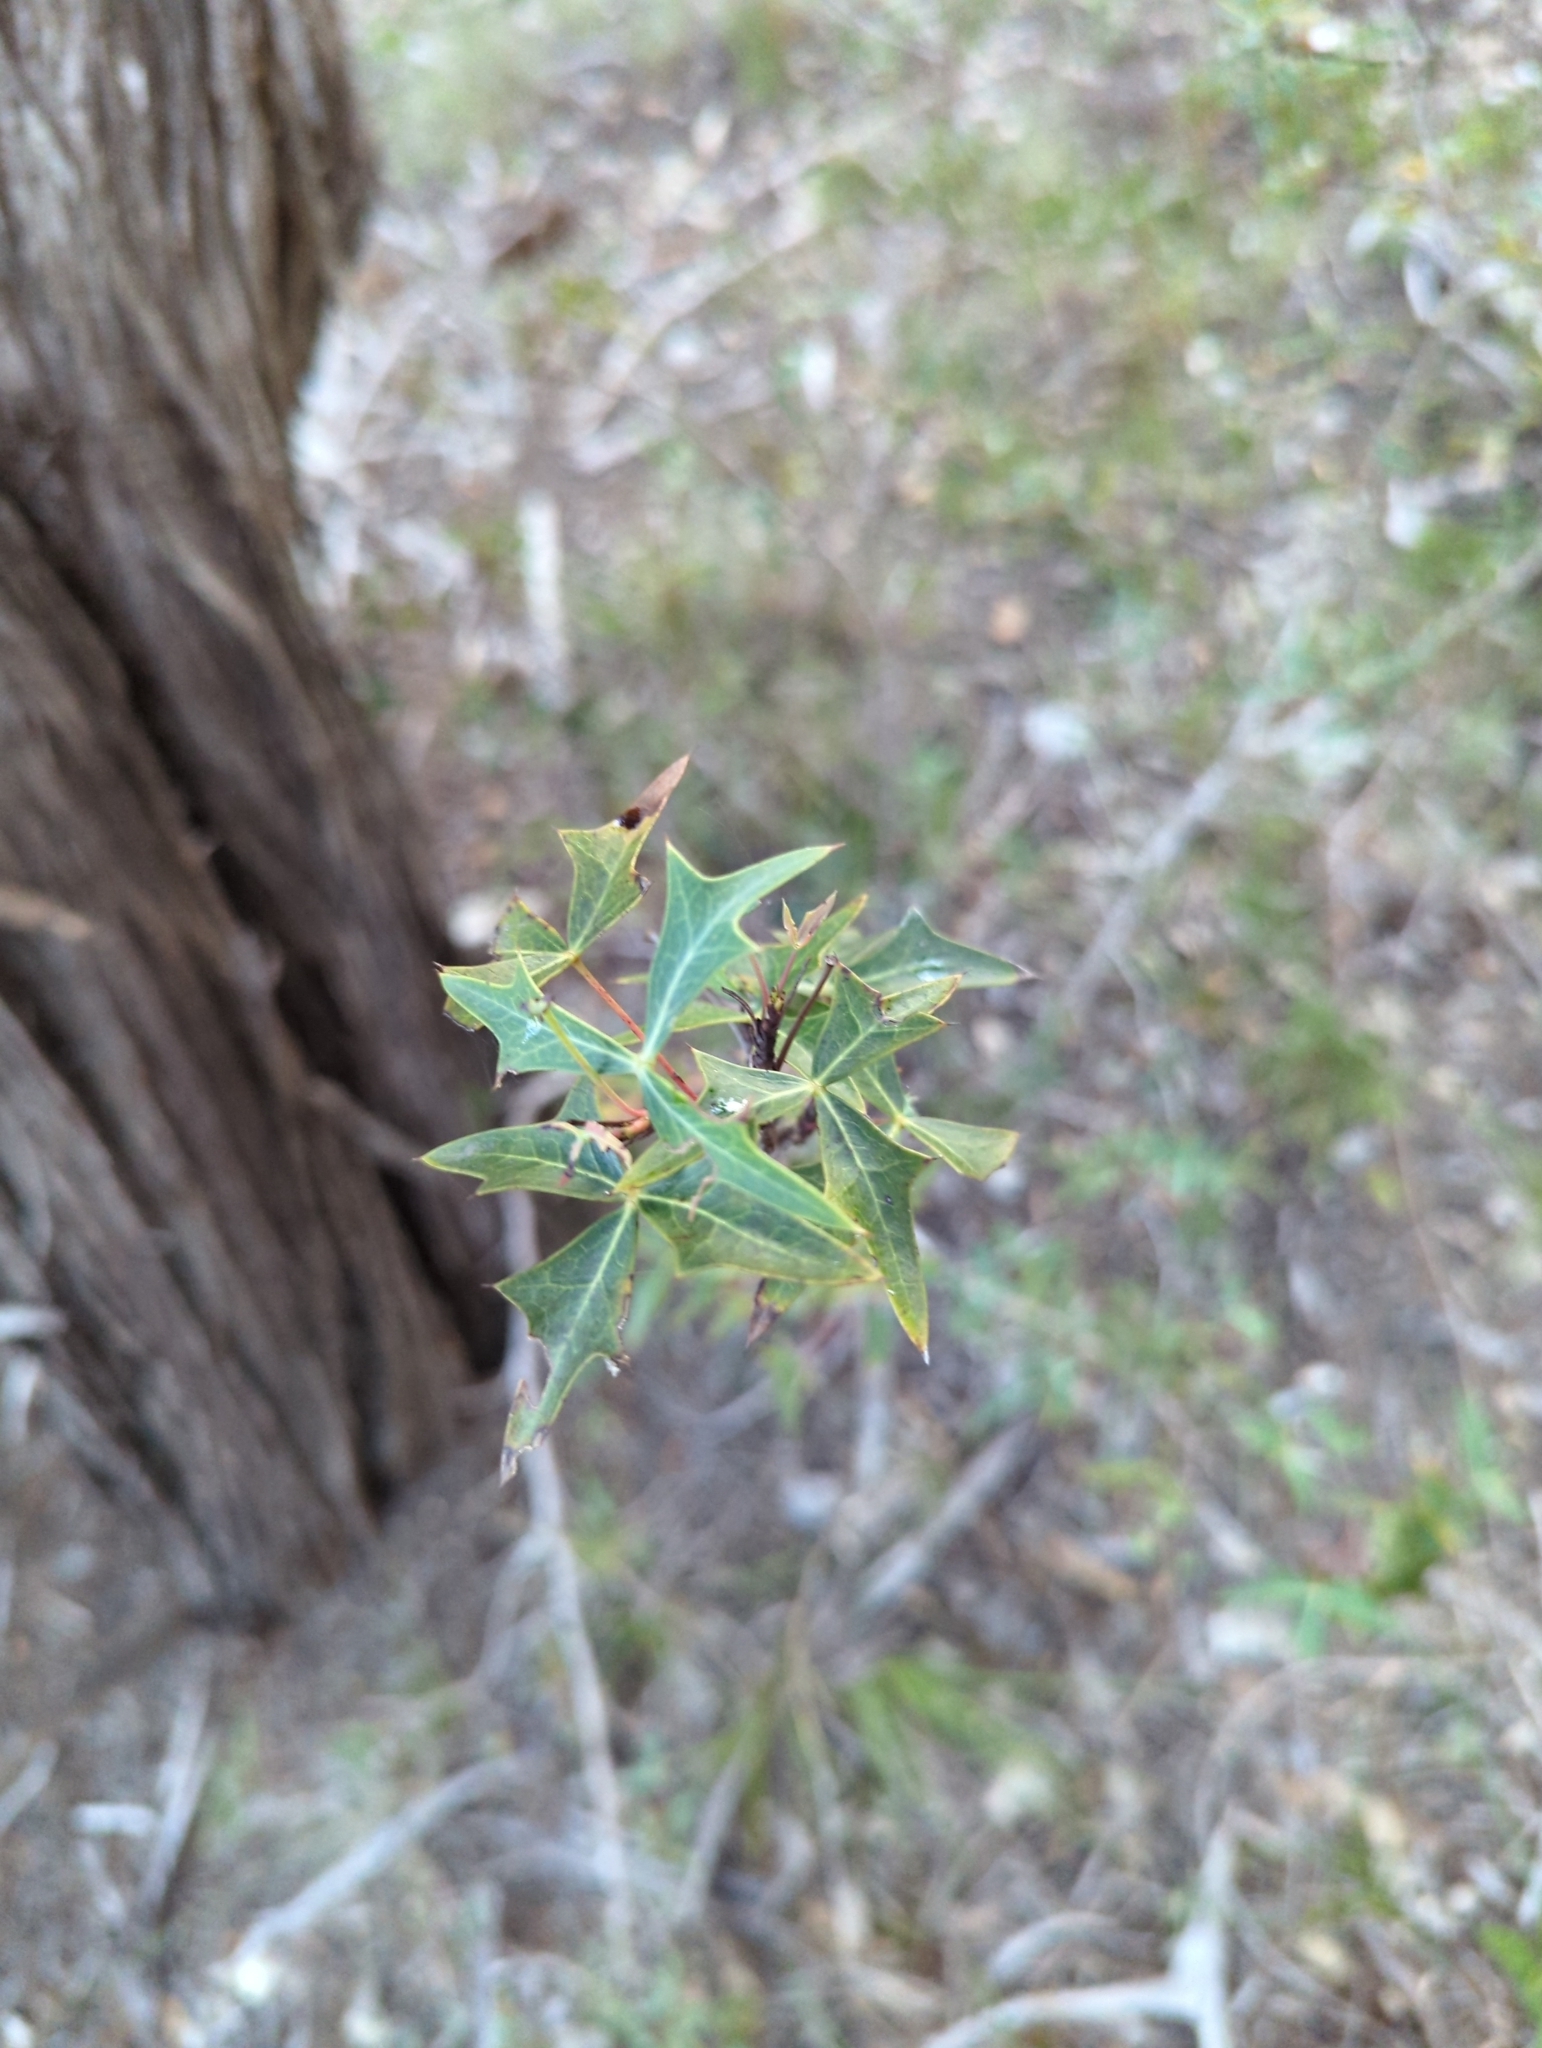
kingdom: Plantae
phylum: Tracheophyta
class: Magnoliopsida
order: Ranunculales
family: Berberidaceae
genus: Alloberberis
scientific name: Alloberberis trifoliolata
